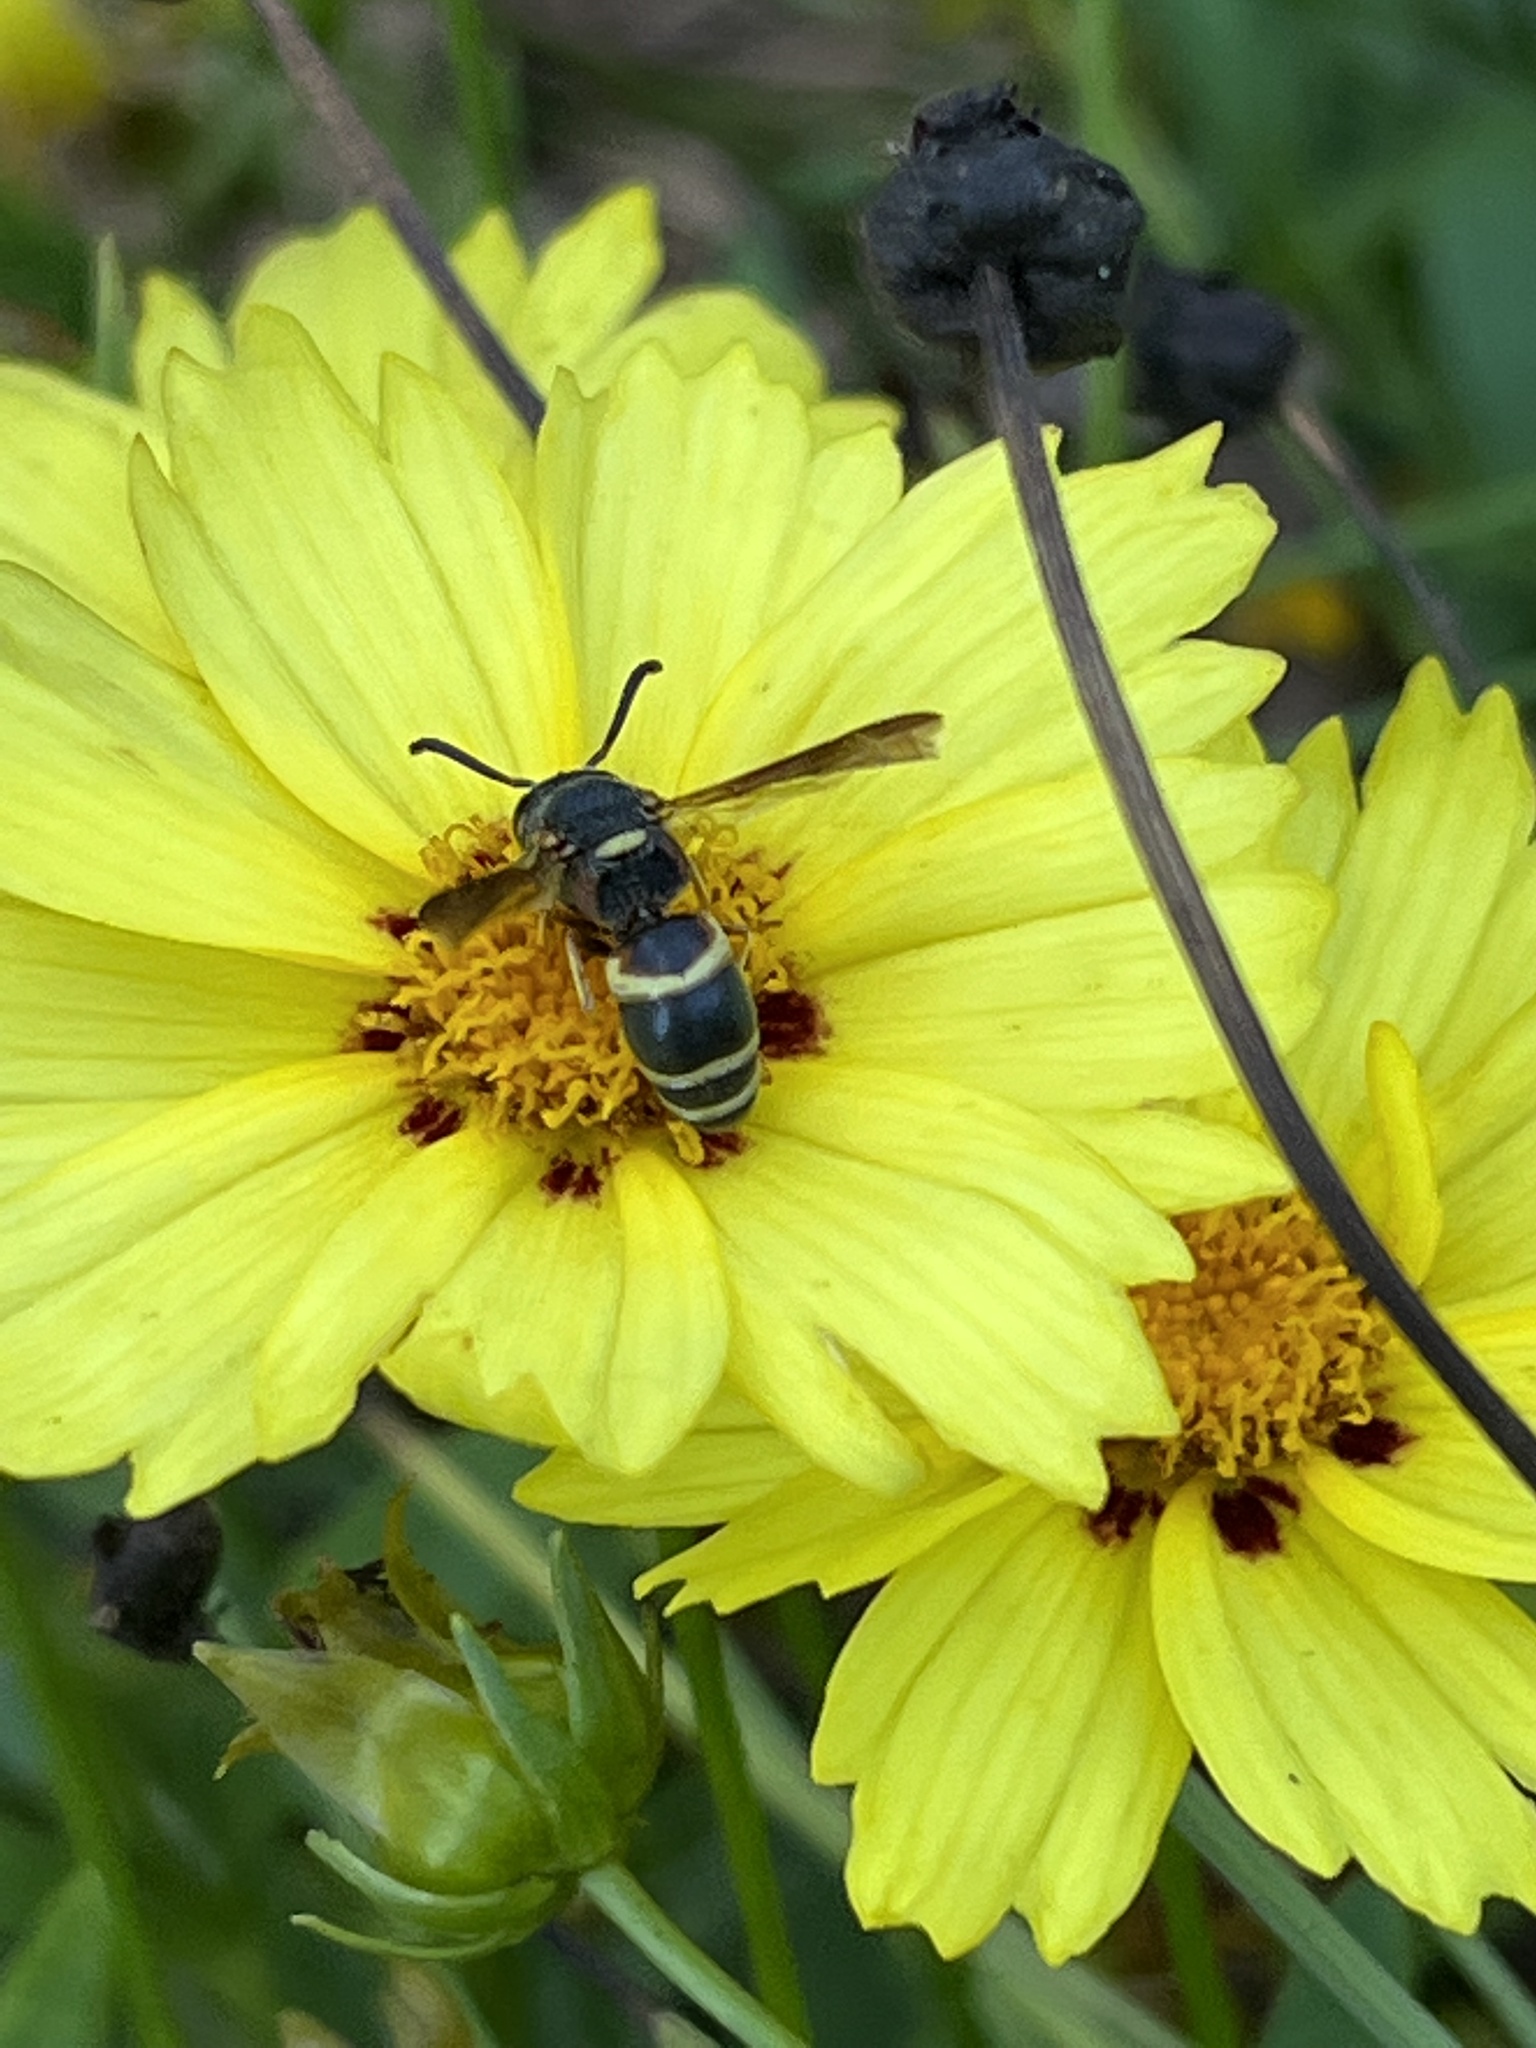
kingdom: Animalia
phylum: Arthropoda
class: Insecta
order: Hymenoptera
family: Eumenidae
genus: Euodynerus
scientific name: Euodynerus hidalgo
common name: Wasp
